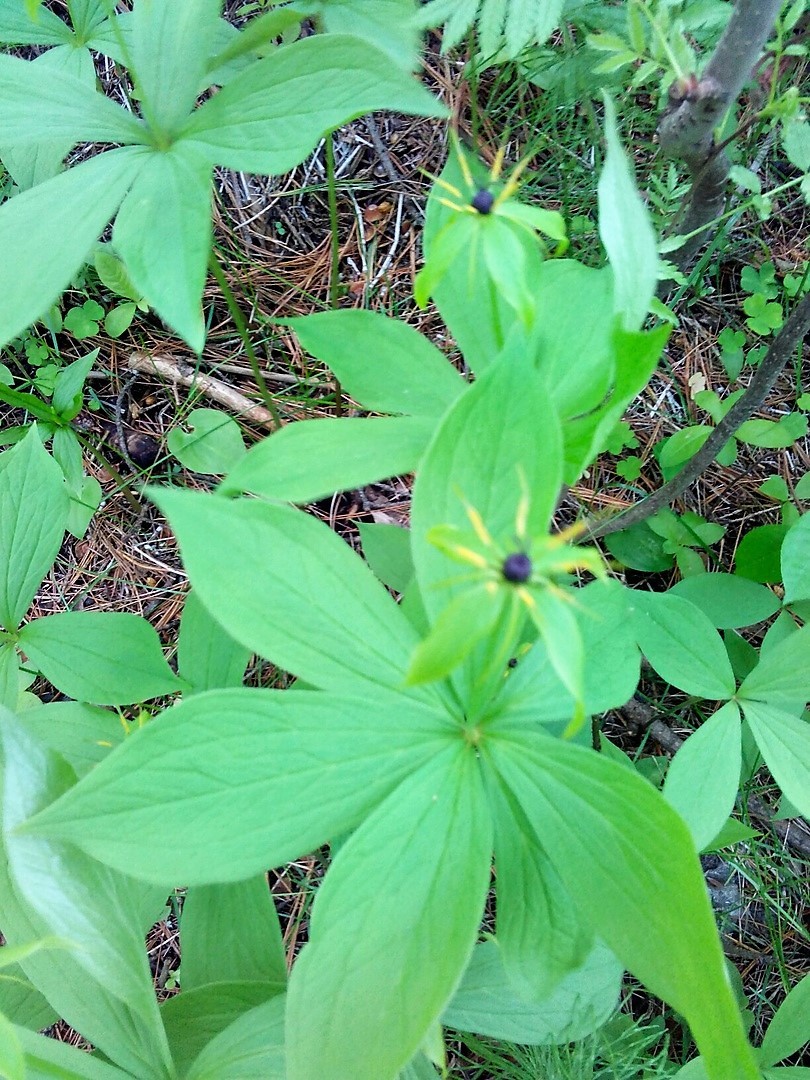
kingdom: Plantae
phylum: Tracheophyta
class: Liliopsida
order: Liliales
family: Melanthiaceae
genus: Paris
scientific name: Paris quadrifolia
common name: Herb-paris
